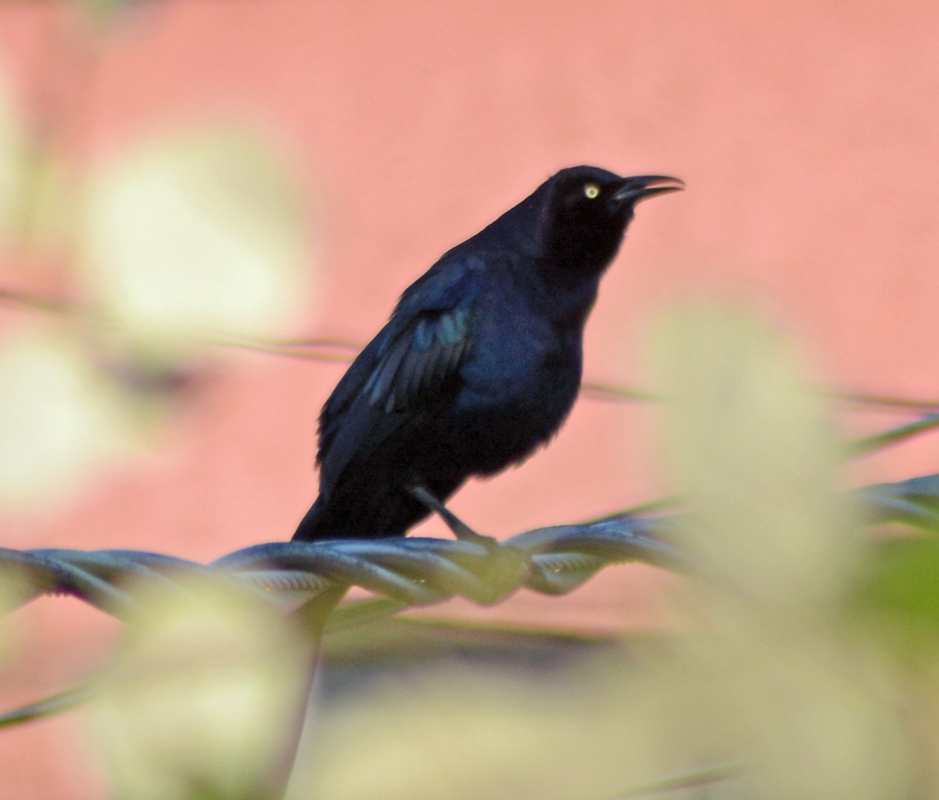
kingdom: Animalia
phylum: Chordata
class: Aves
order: Passeriformes
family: Icteridae
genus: Quiscalus
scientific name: Quiscalus mexicanus
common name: Great-tailed grackle
